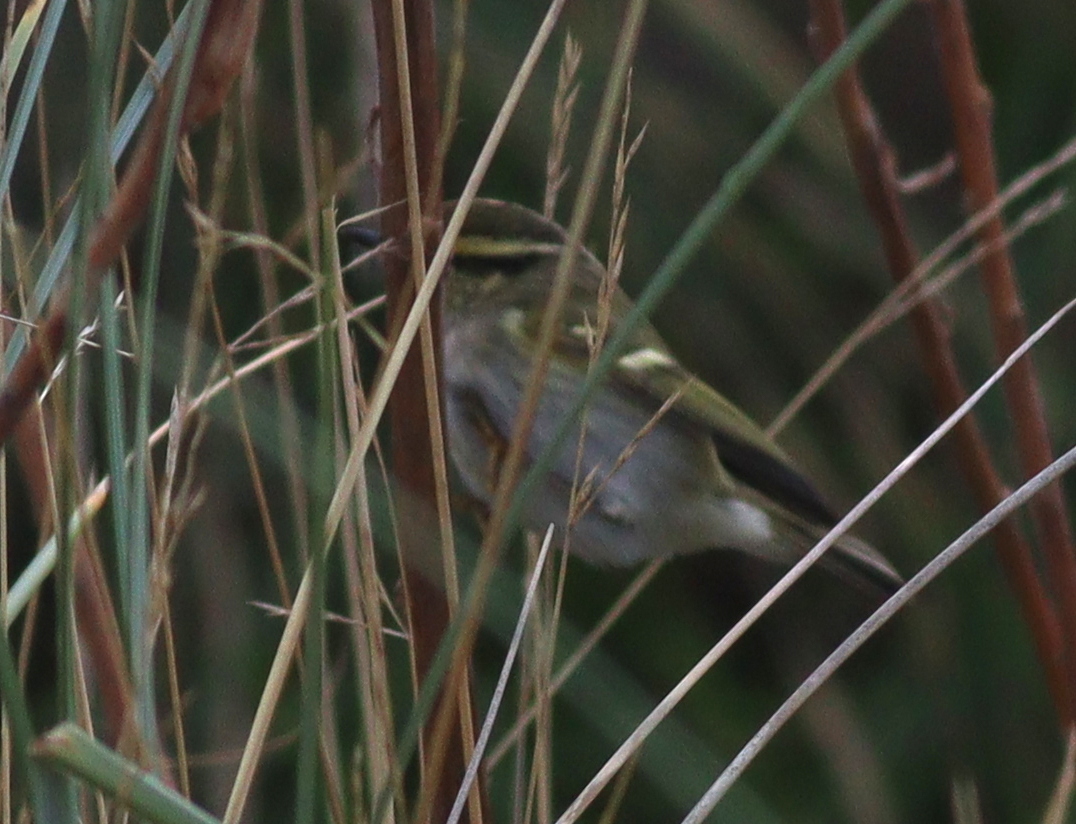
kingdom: Animalia
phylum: Chordata
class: Aves
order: Passeriformes
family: Phylloscopidae
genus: Phylloscopus
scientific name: Phylloscopus proregulus
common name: Pallas's leaf warbler
